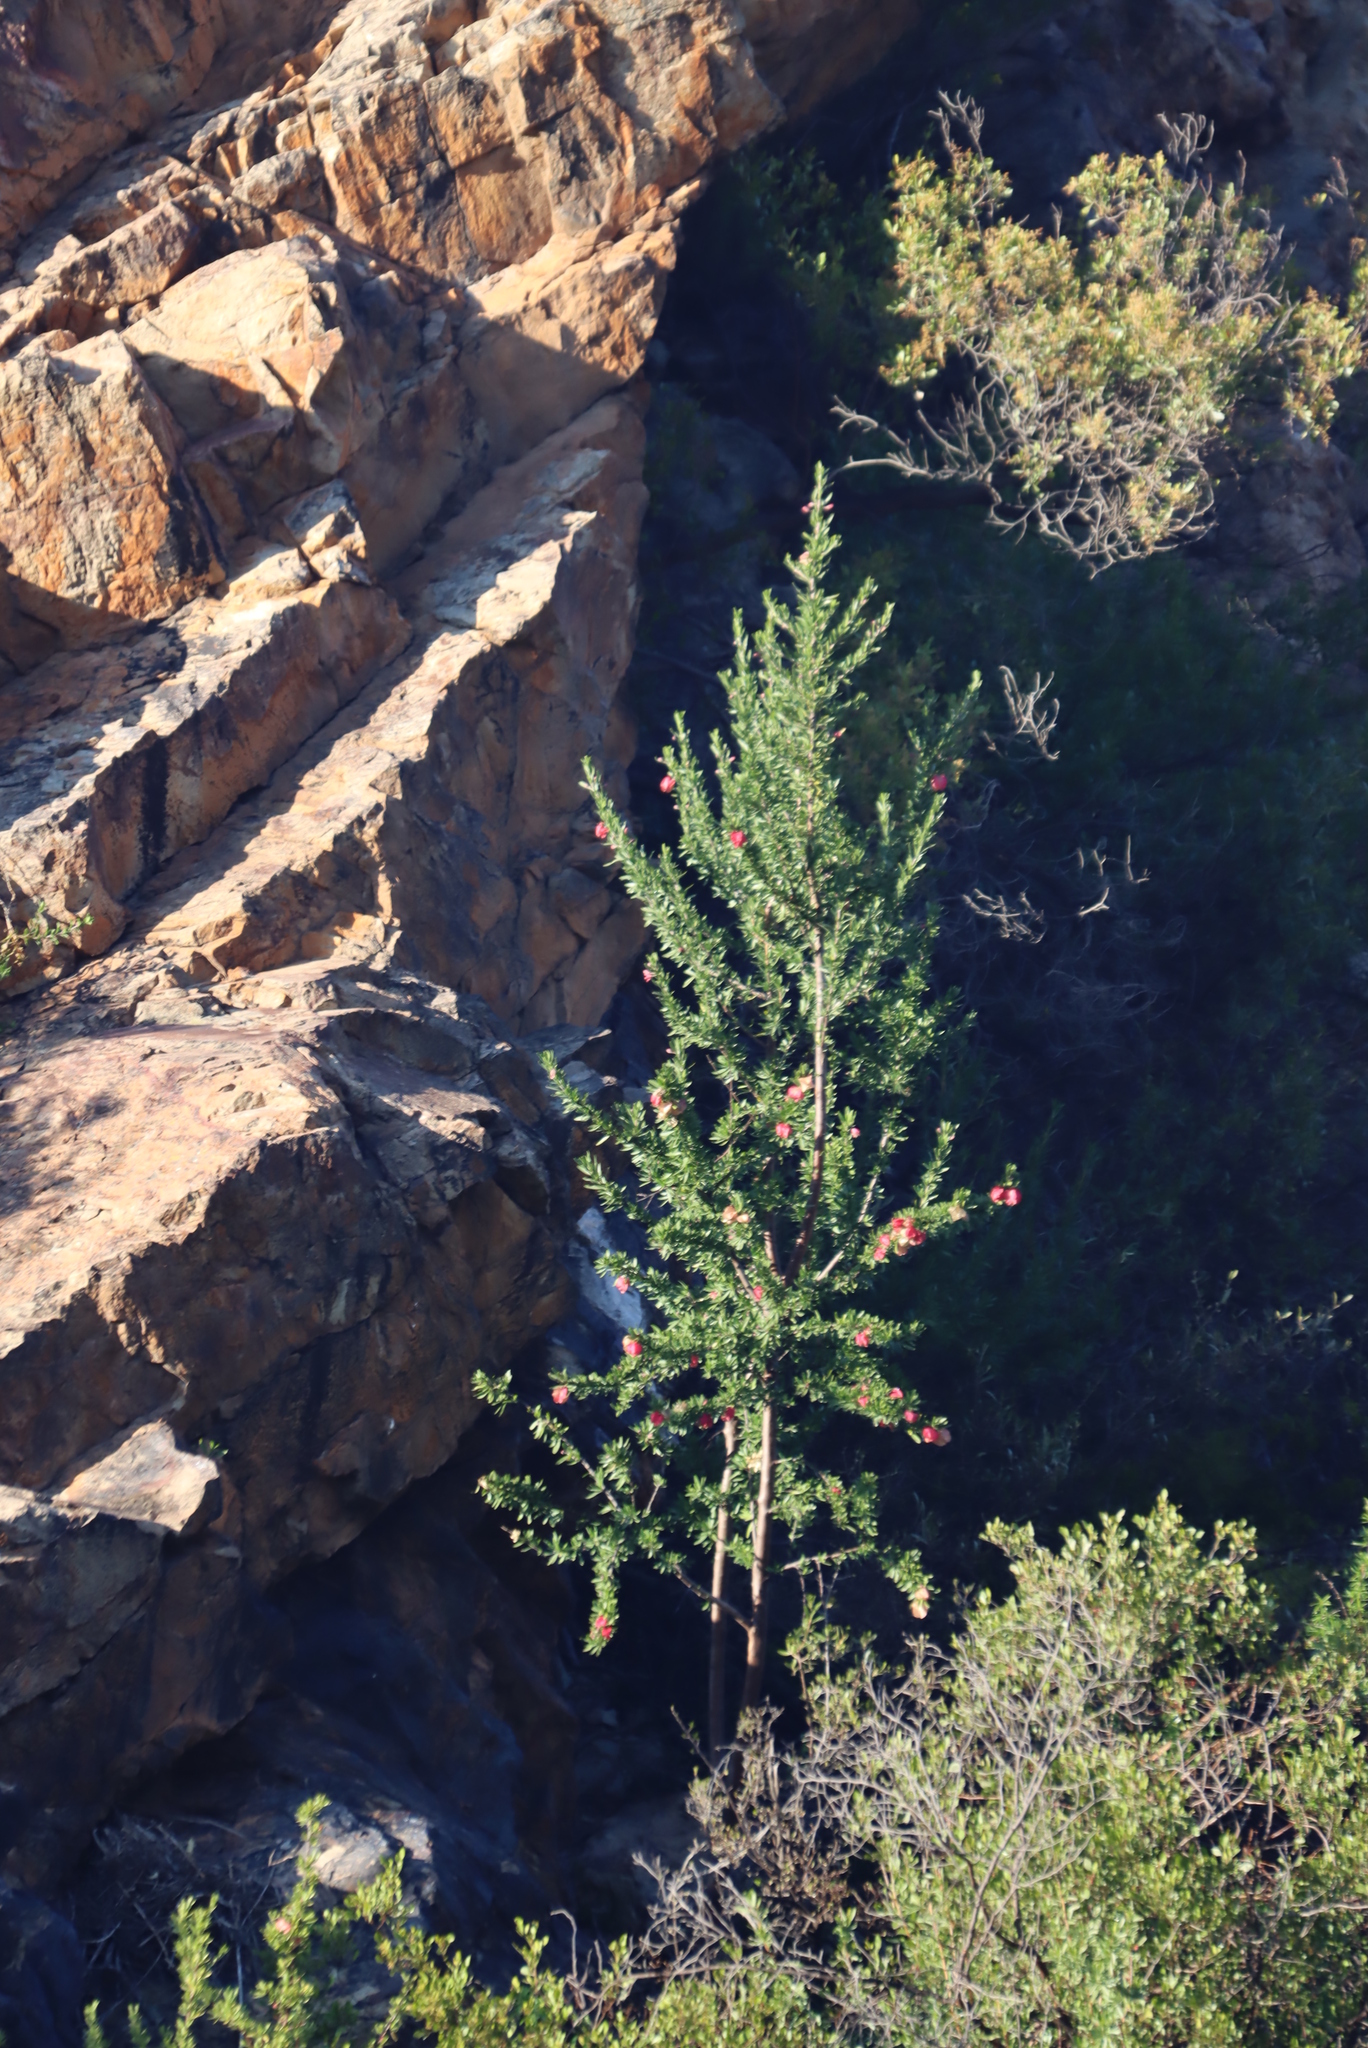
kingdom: Plantae
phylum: Tracheophyta
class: Magnoliopsida
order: Sapindales
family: Meliaceae
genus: Nymania
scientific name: Nymania capensis
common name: Chinese lantern tree
